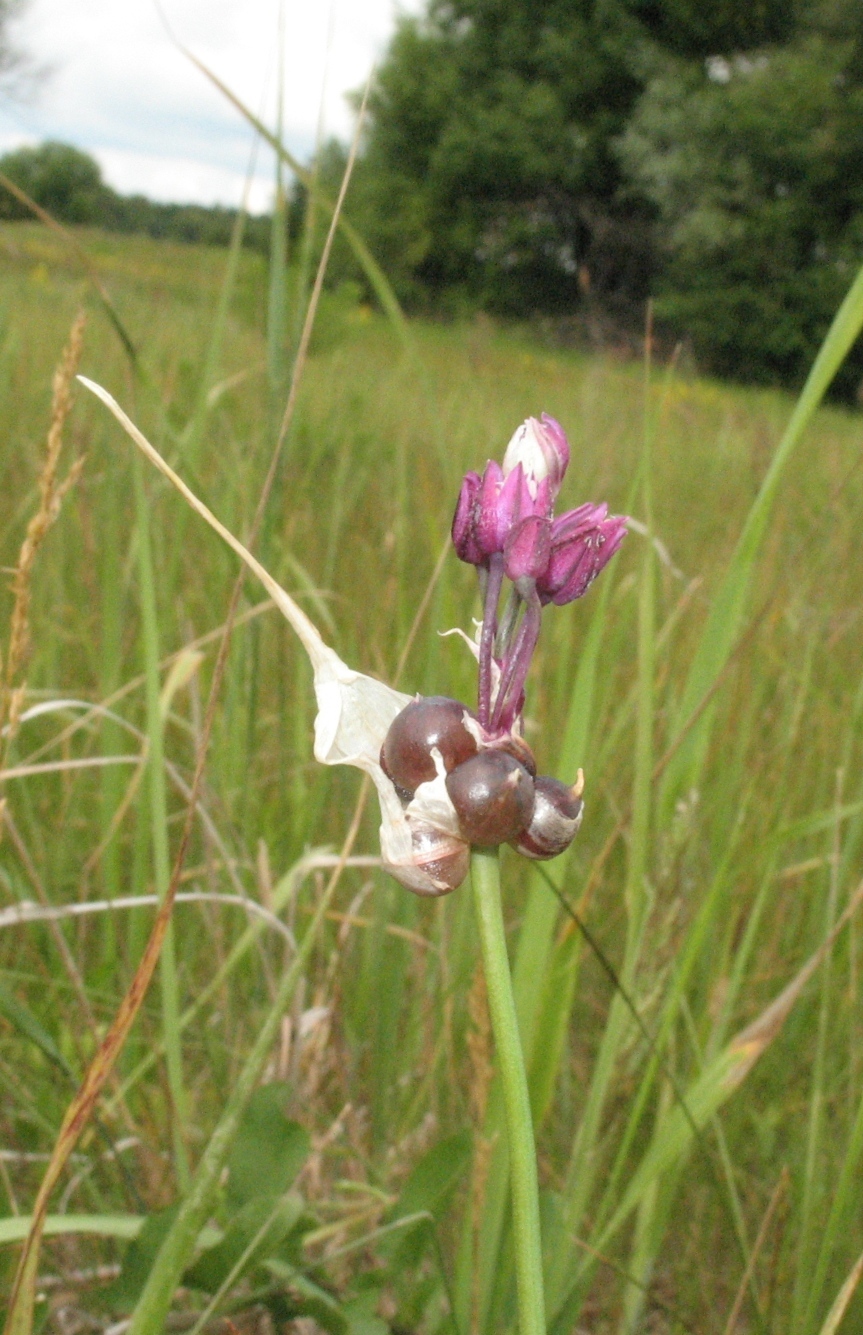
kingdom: Plantae
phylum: Tracheophyta
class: Liliopsida
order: Asparagales
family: Amaryllidaceae
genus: Allium
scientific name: Allium scorodoprasum
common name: Sand leek
